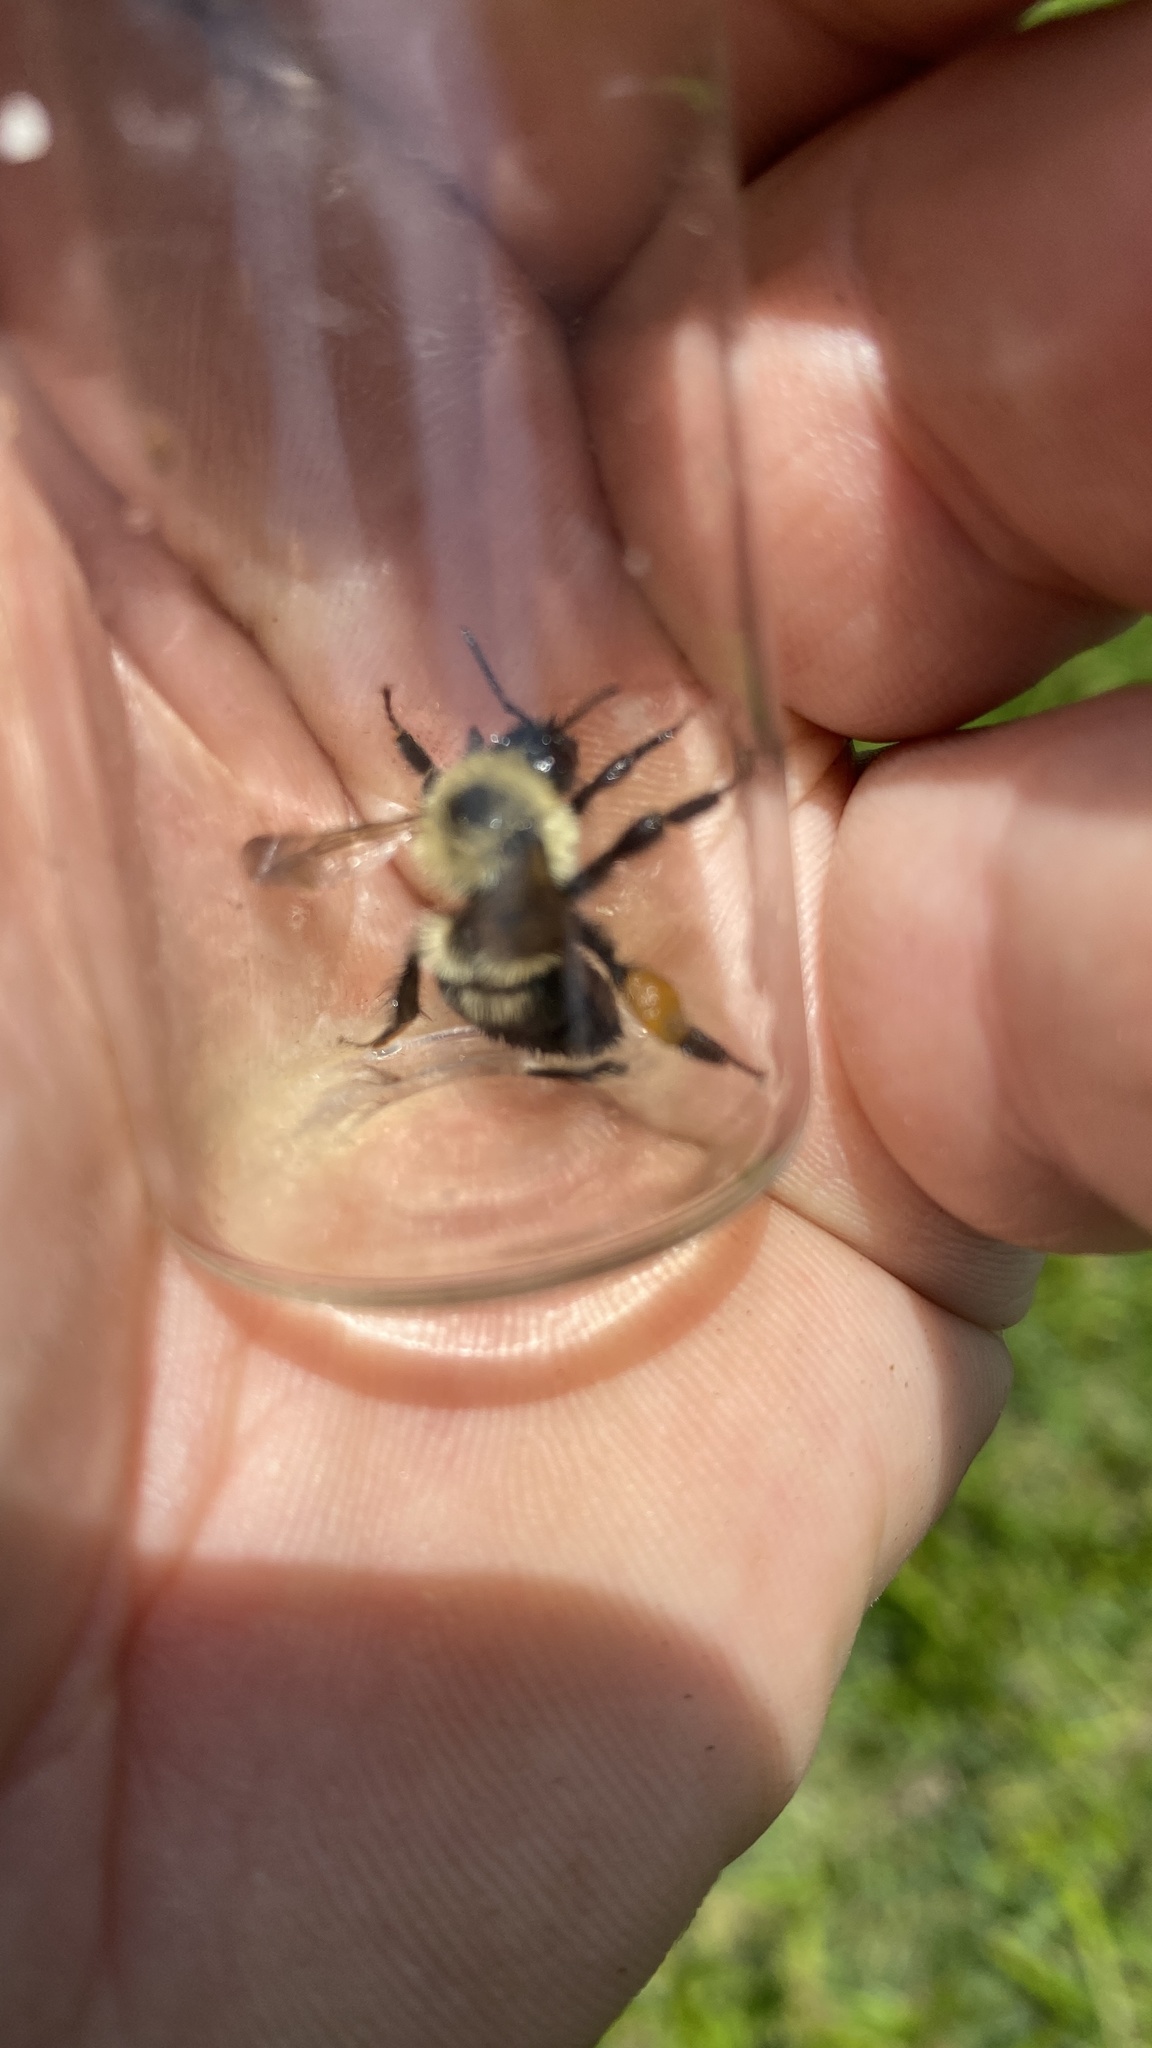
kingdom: Animalia
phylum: Arthropoda
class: Insecta
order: Hymenoptera
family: Apidae
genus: Bombus
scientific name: Bombus bimaculatus
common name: Two-spotted bumble bee
